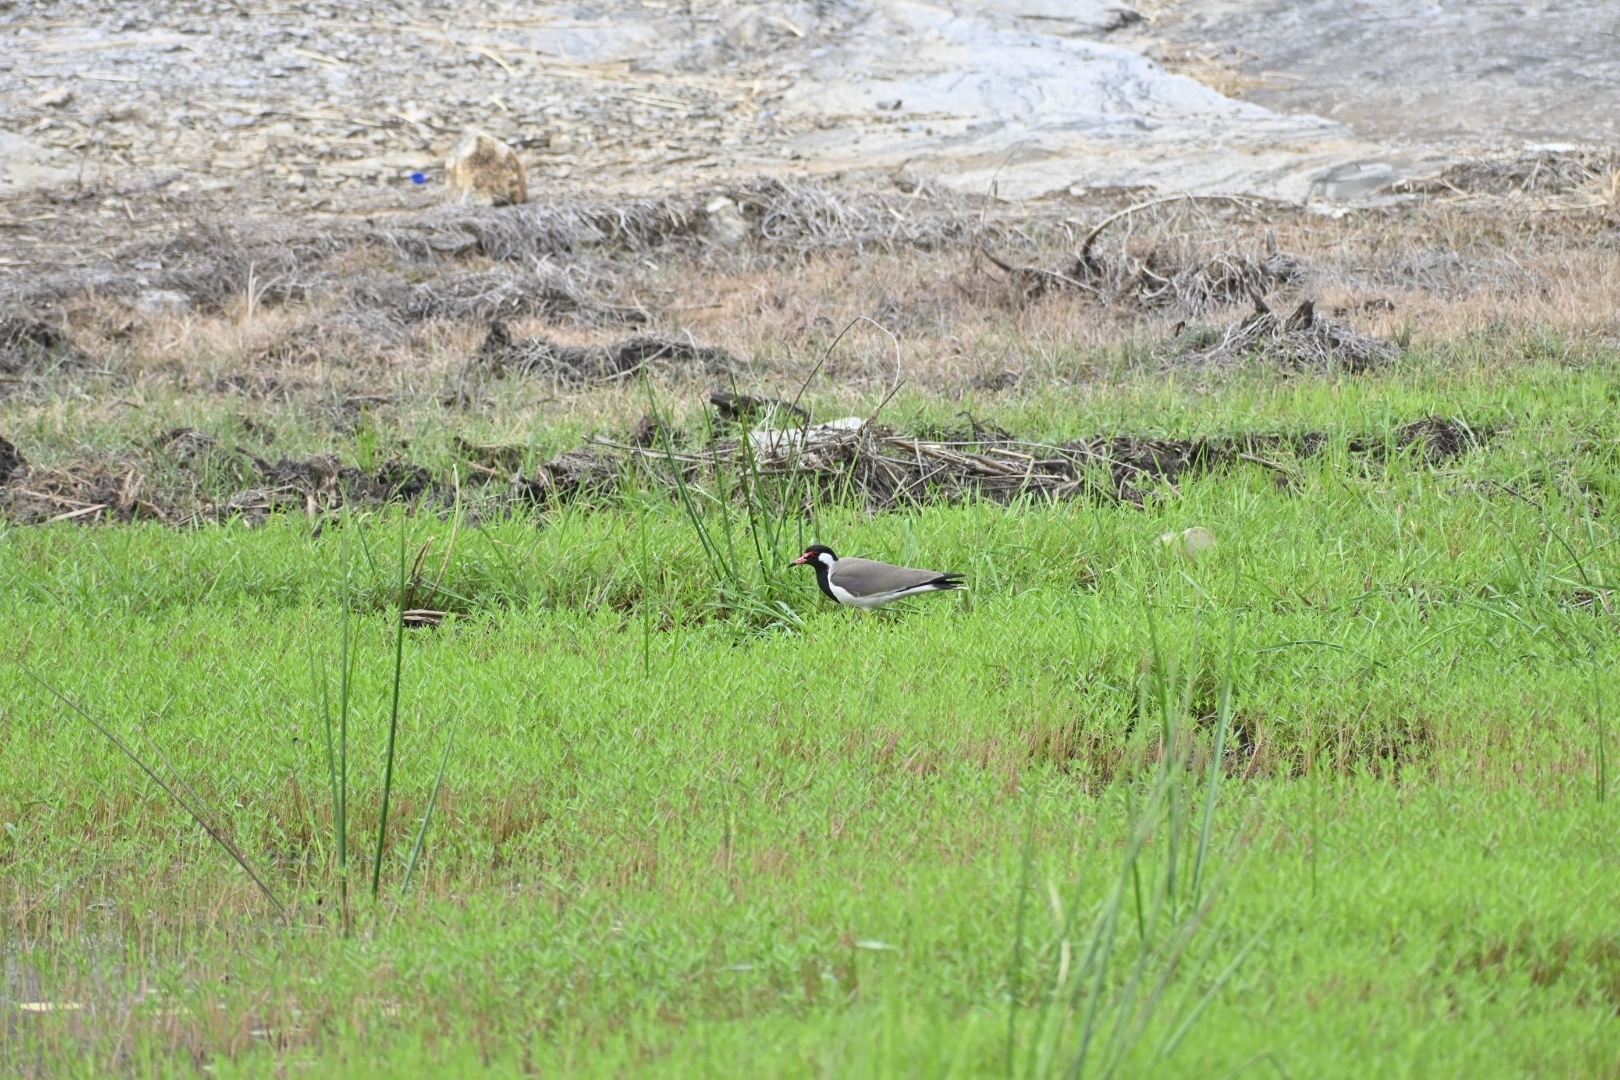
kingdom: Animalia
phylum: Chordata
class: Aves
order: Charadriiformes
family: Charadriidae
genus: Vanellus
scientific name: Vanellus indicus
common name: Red-wattled lapwing
